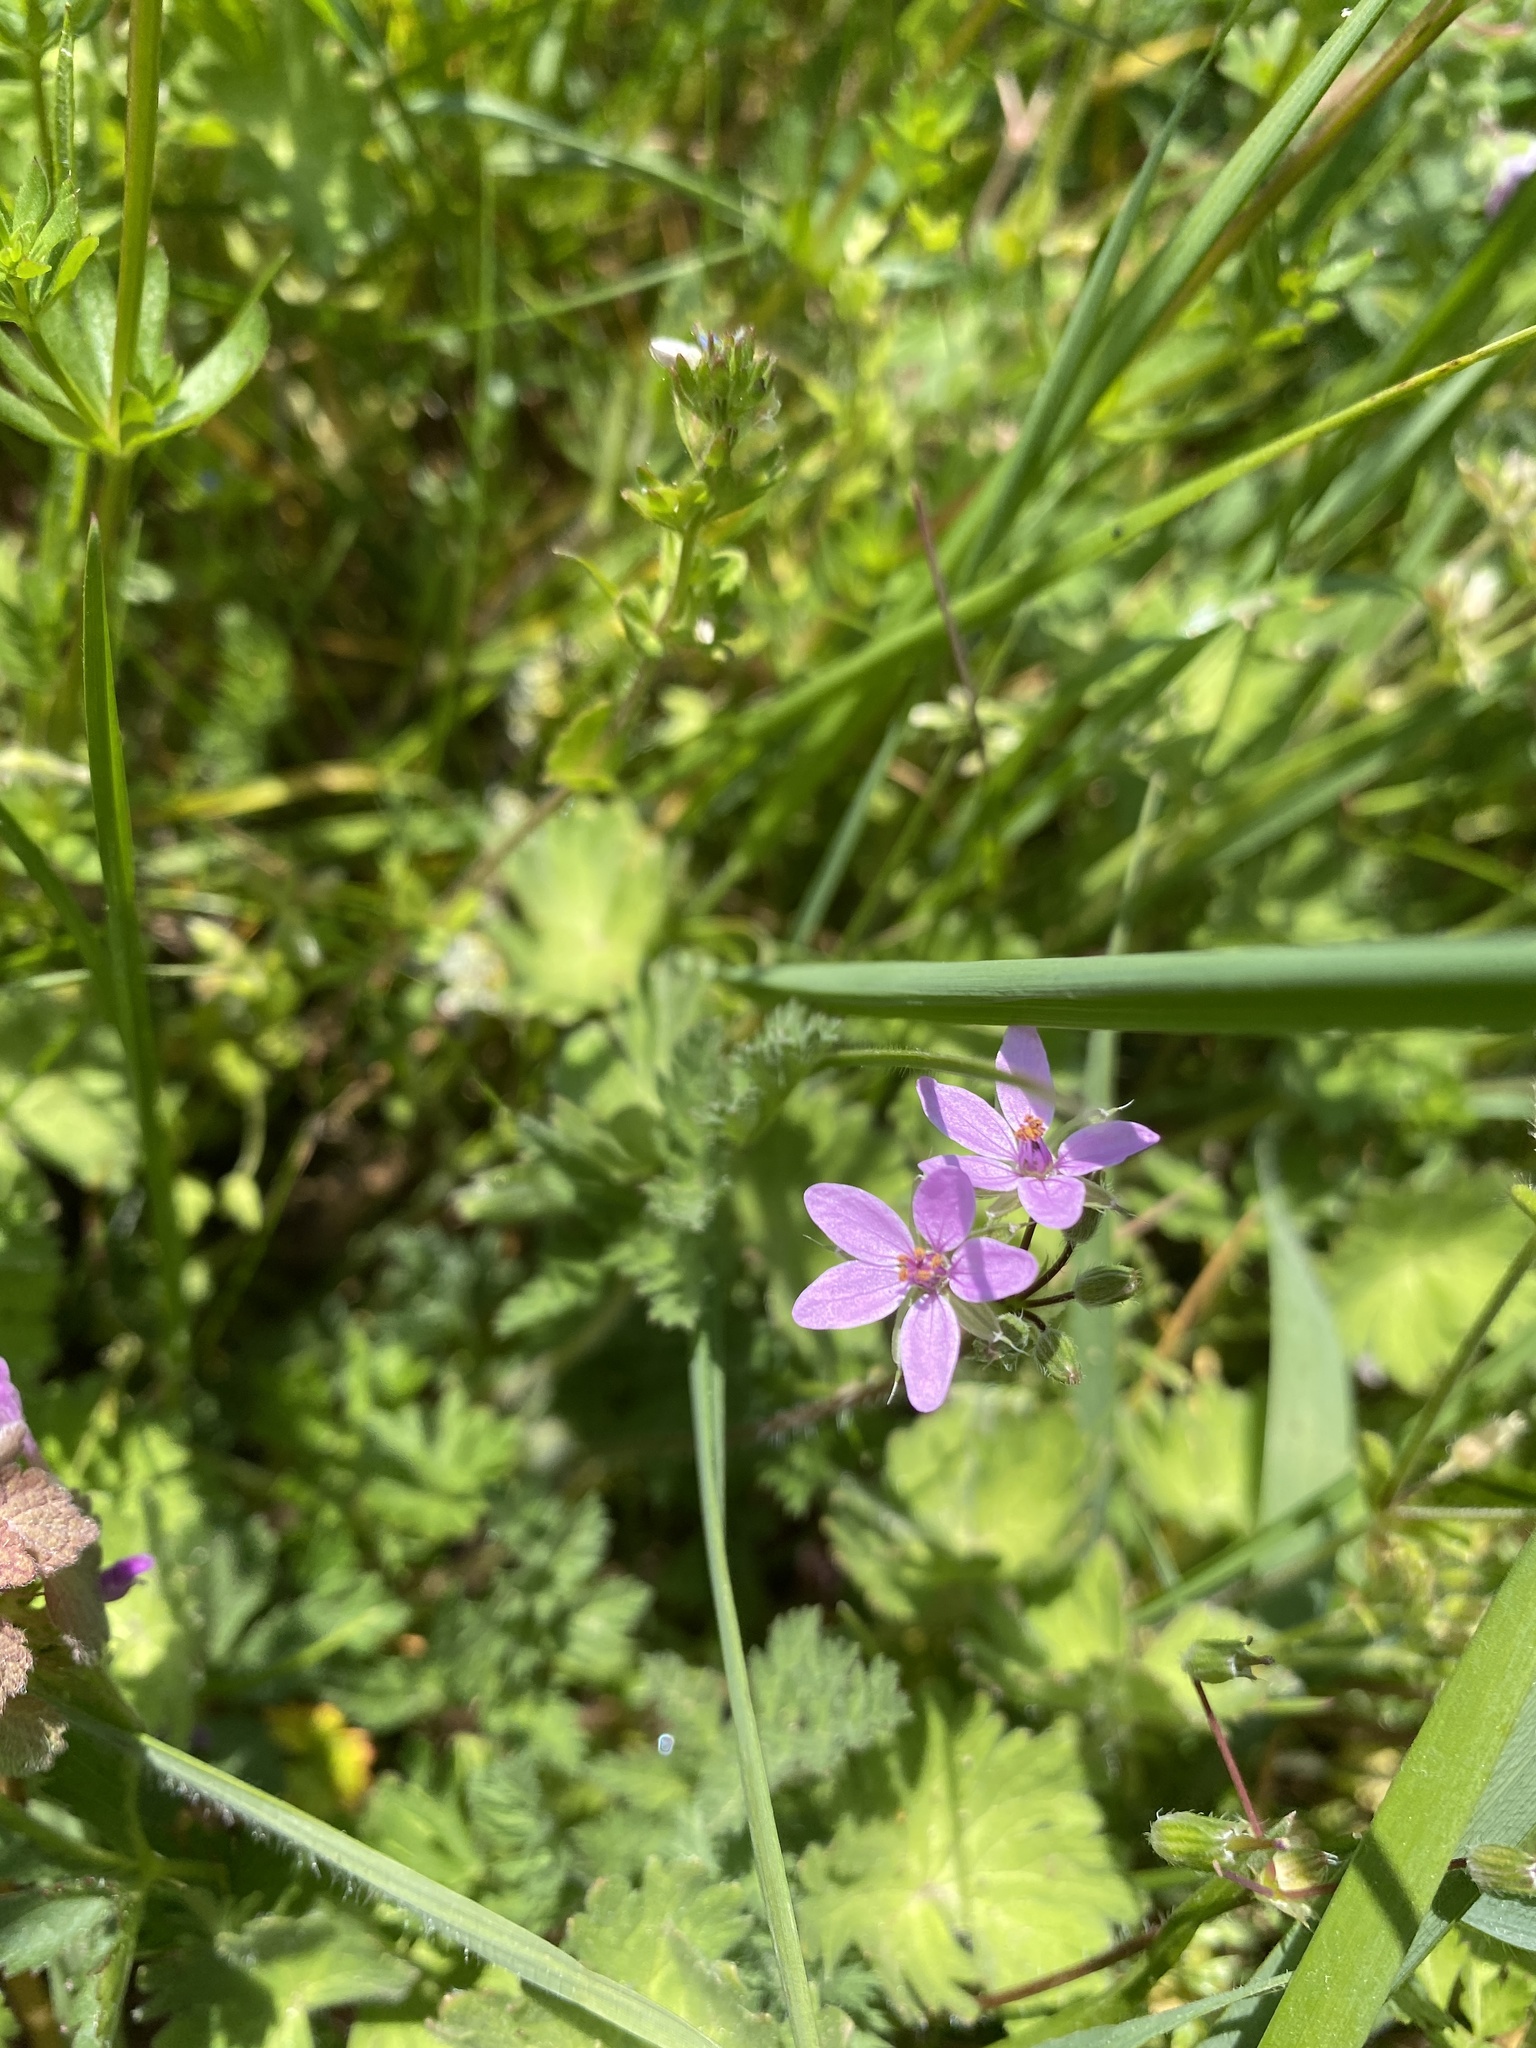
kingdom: Plantae
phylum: Tracheophyta
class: Magnoliopsida
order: Geraniales
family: Geraniaceae
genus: Erodium
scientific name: Erodium cicutarium
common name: Common stork's-bill
